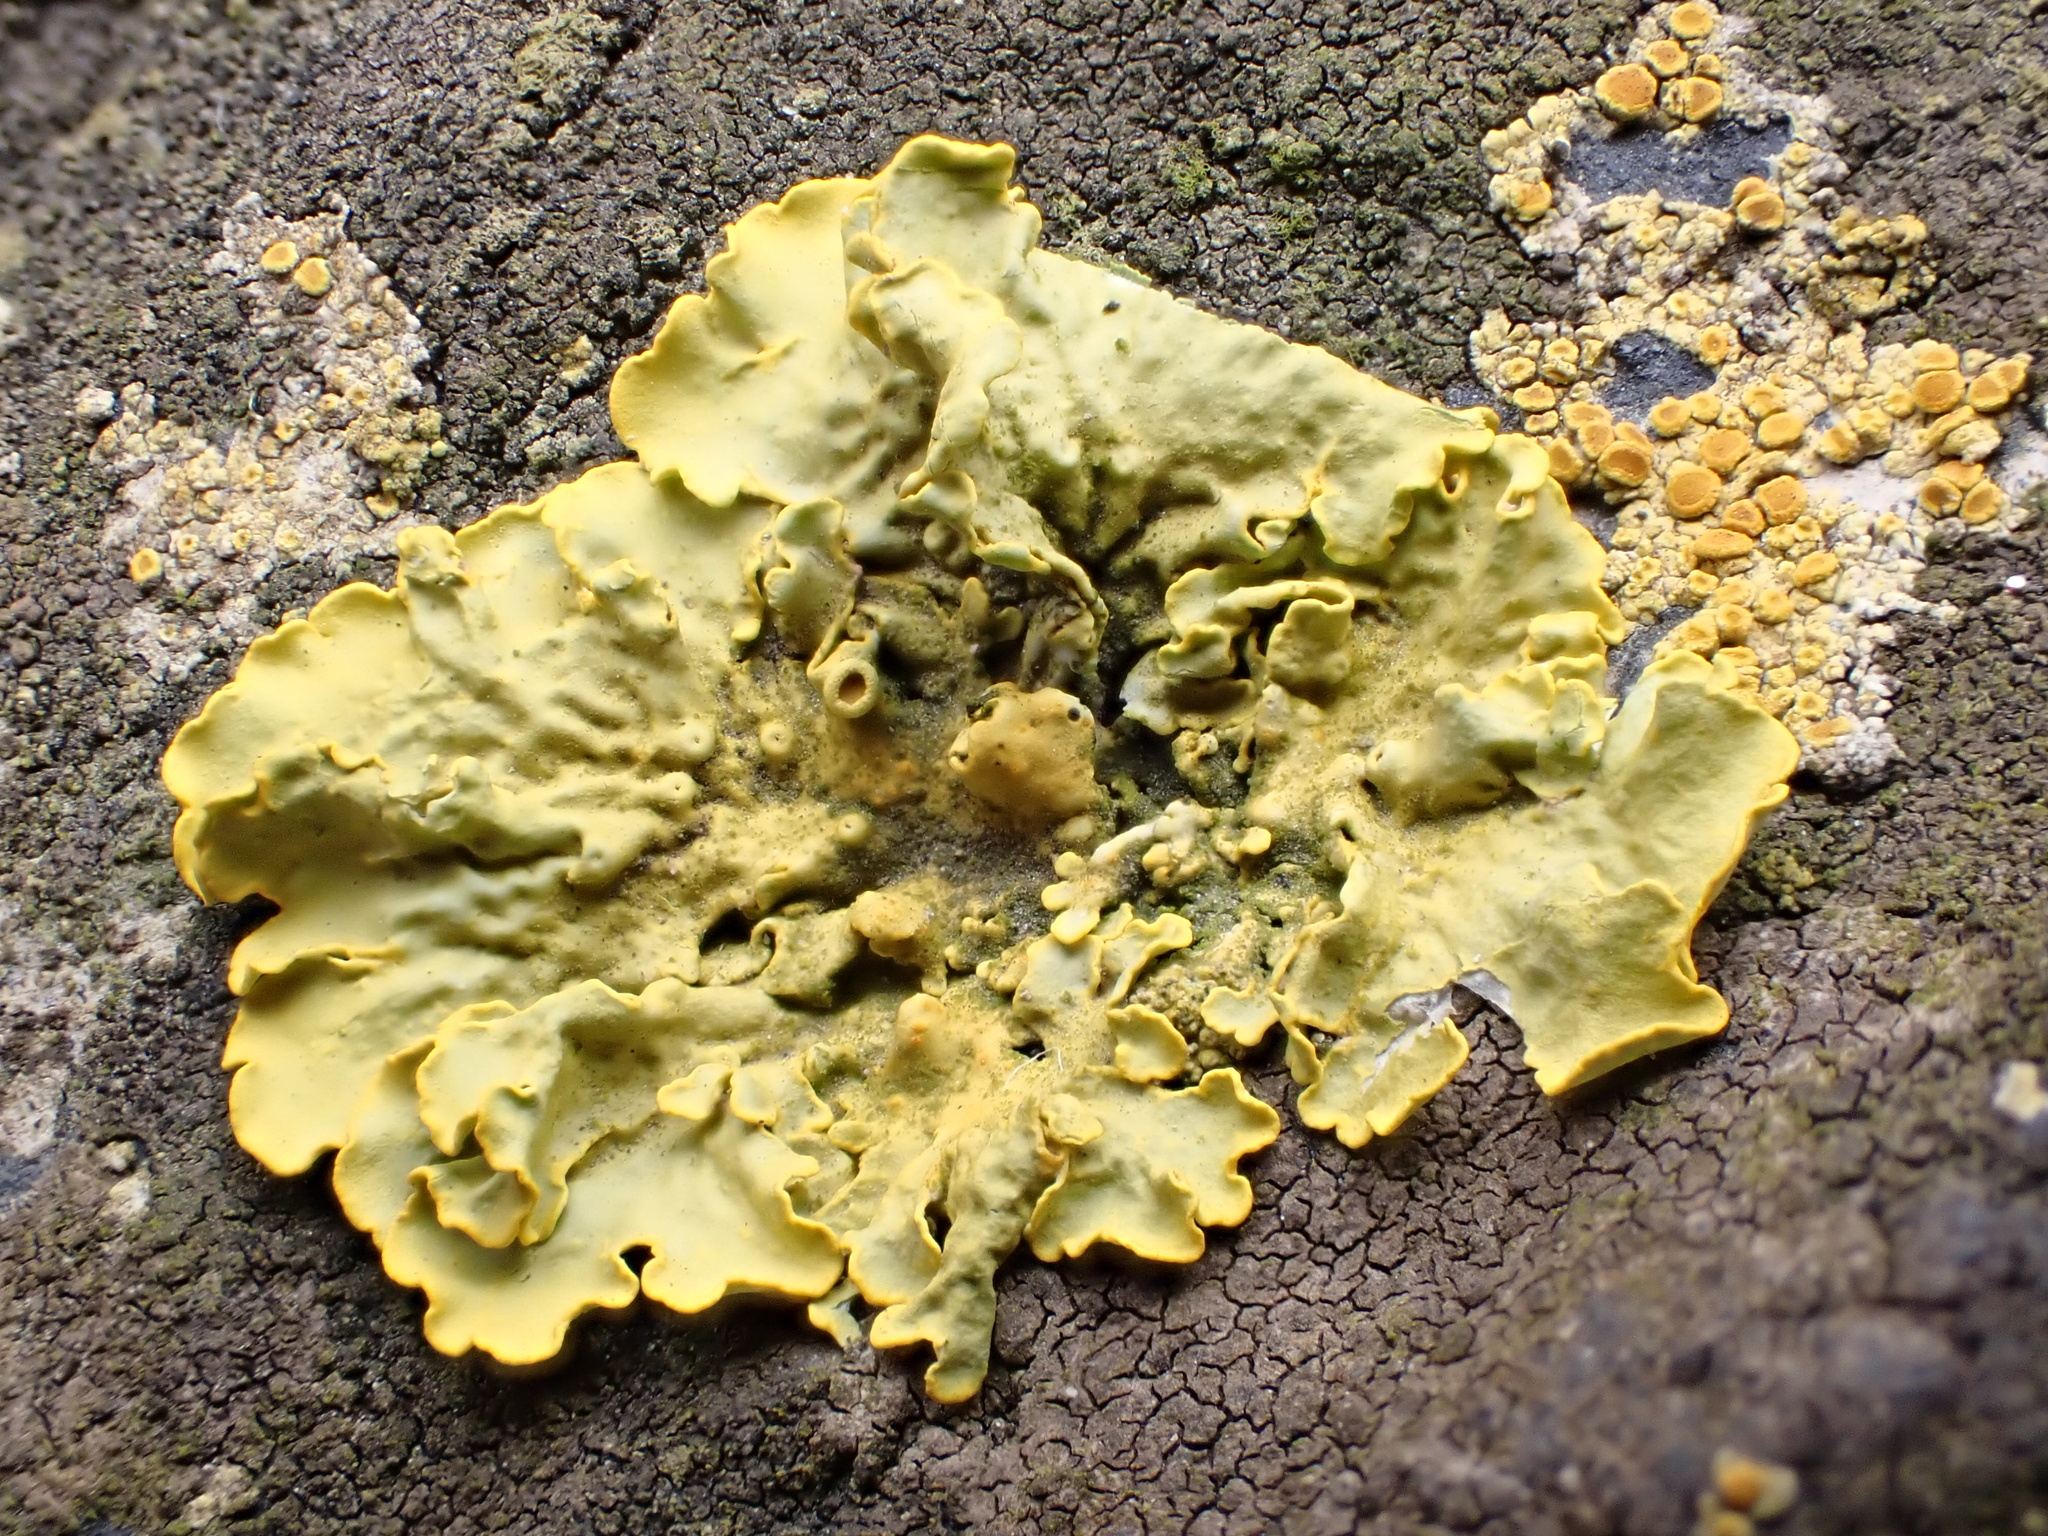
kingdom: Fungi
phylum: Ascomycota
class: Lecanoromycetes
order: Teloschistales
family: Teloschistaceae
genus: Xanthoria
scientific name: Xanthoria parietina
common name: Common orange lichen
